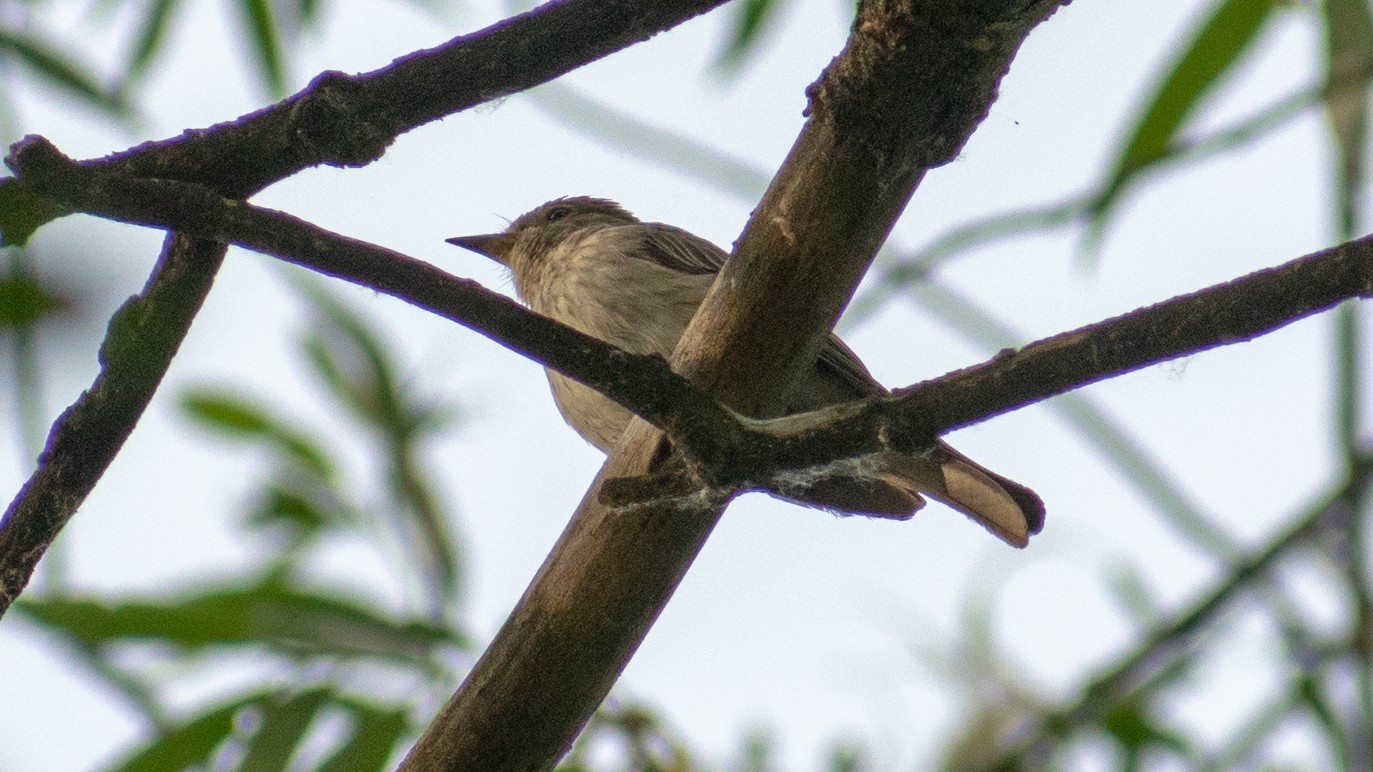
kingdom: Animalia
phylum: Chordata
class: Aves
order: Passeriformes
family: Muscicapidae
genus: Muscicapa
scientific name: Muscicapa striata
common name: Spotted flycatcher
